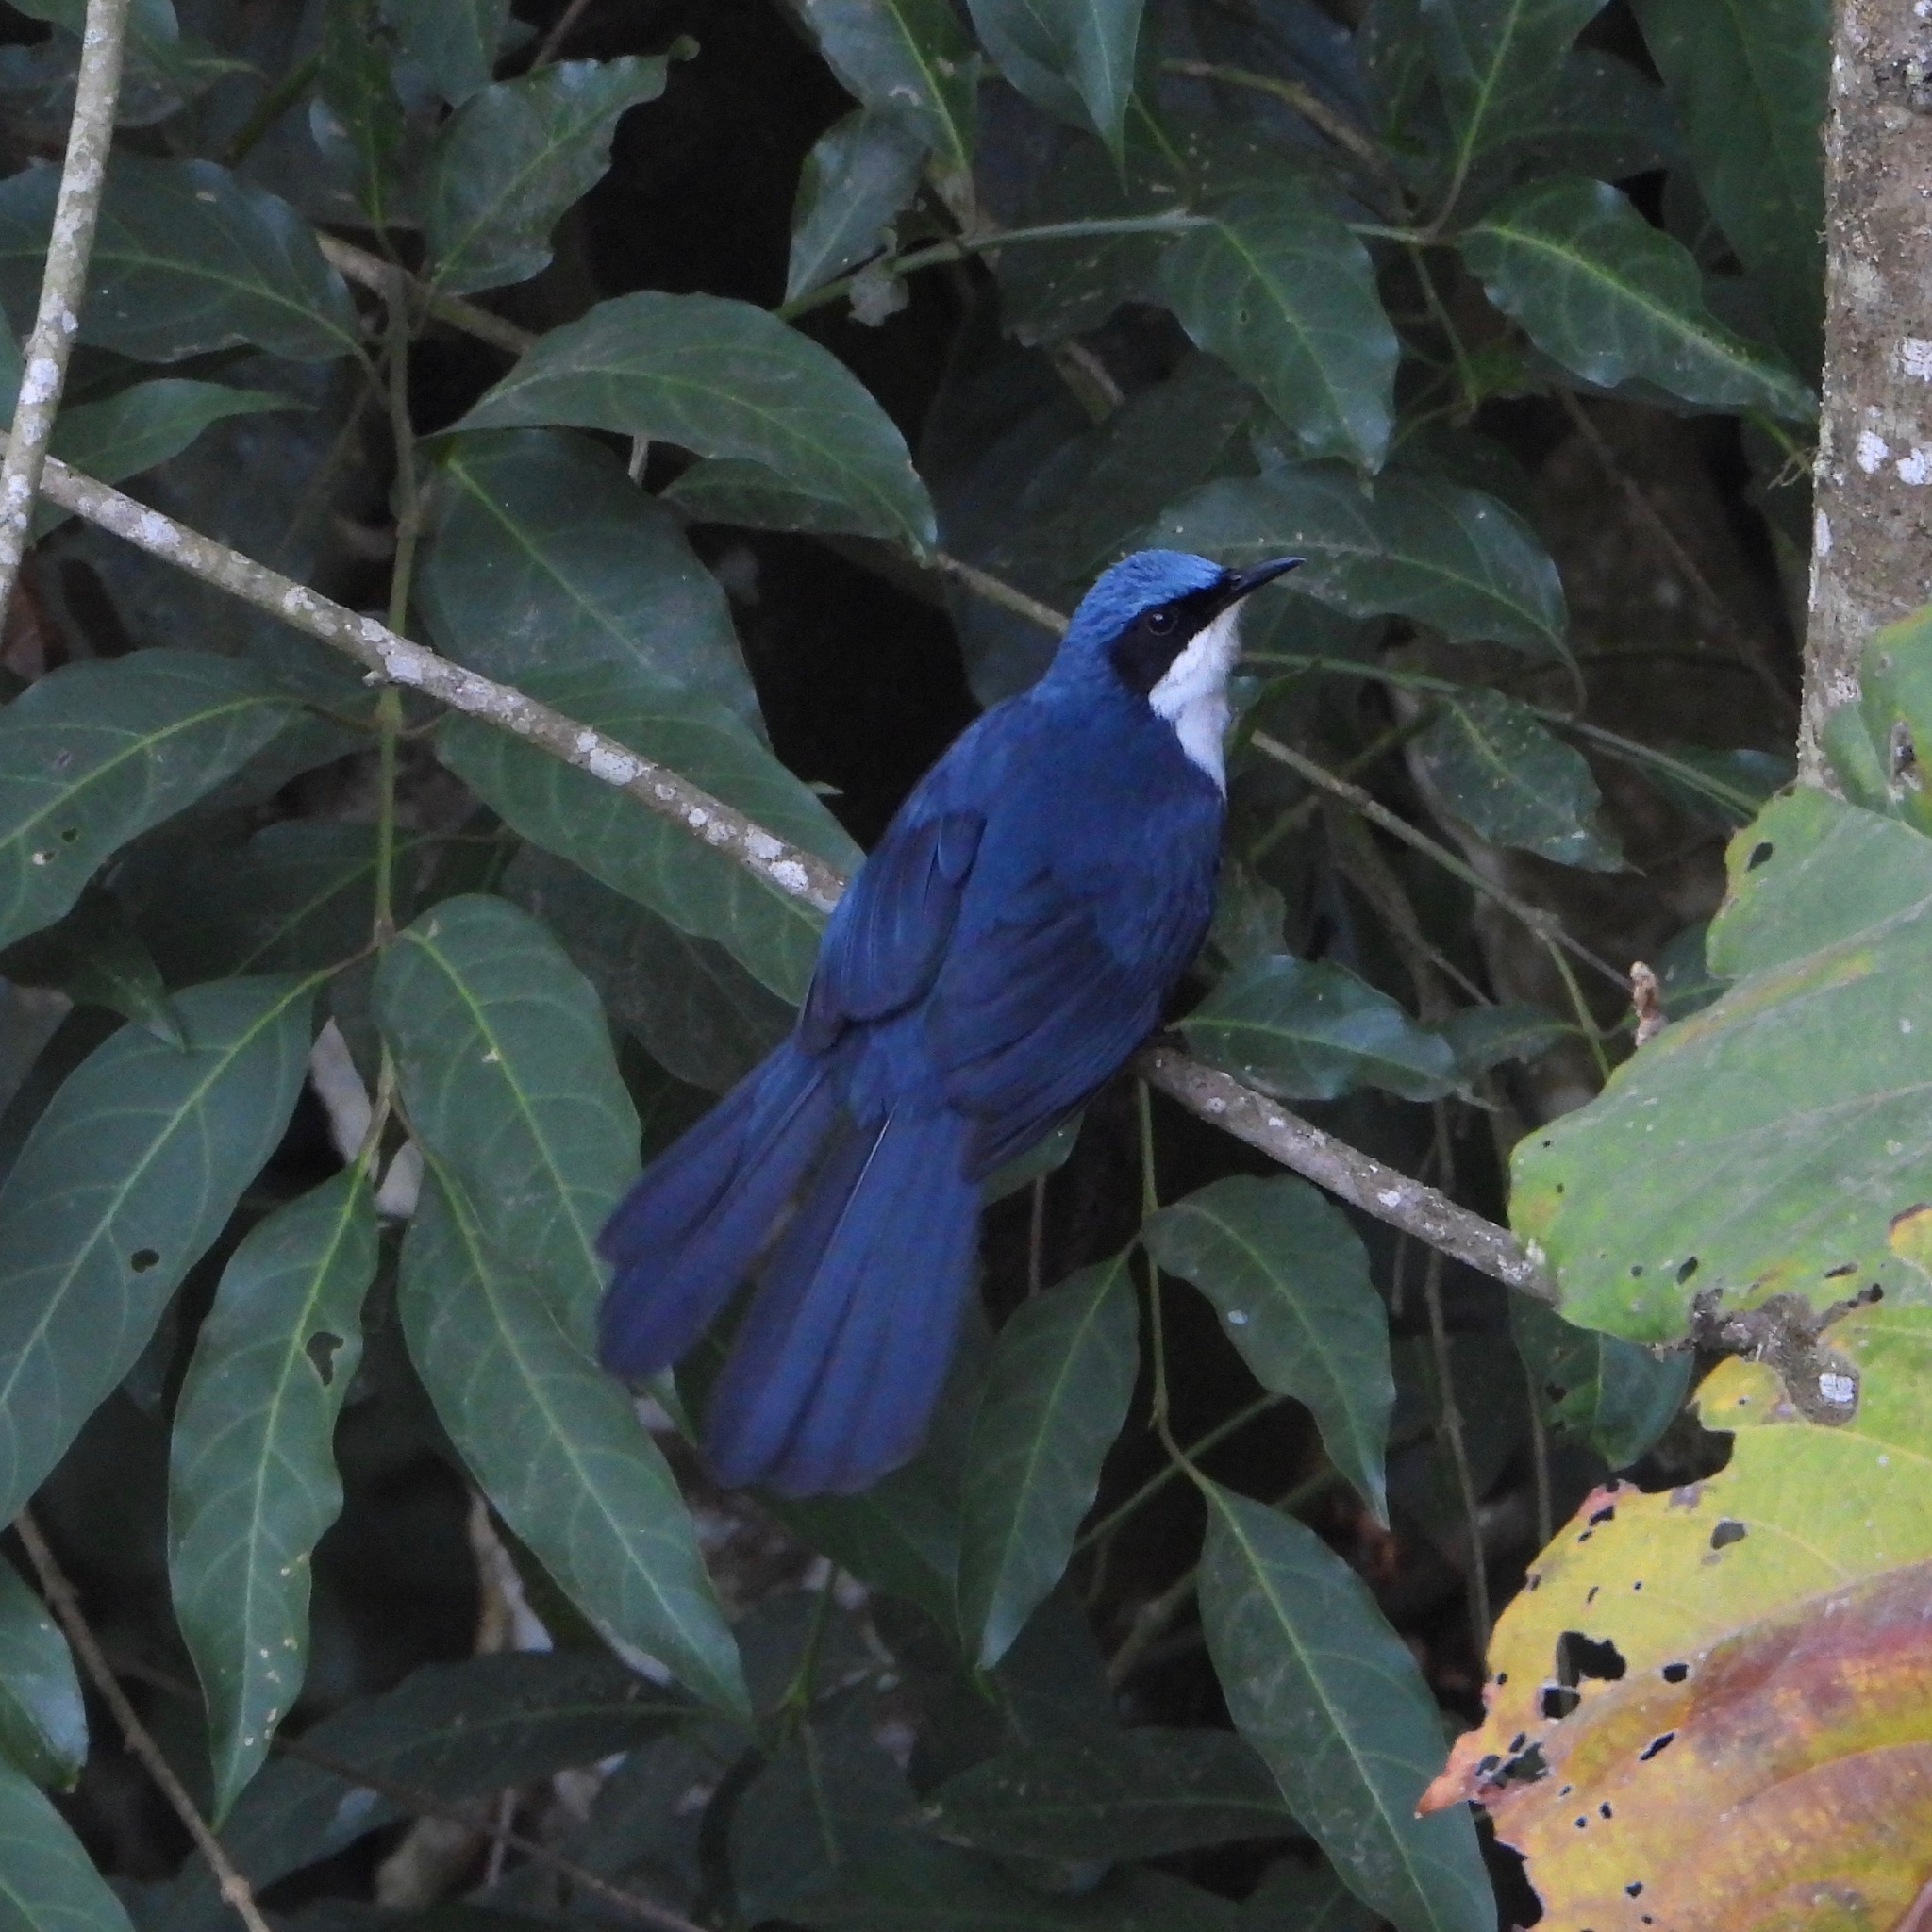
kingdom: Animalia
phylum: Chordata
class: Aves
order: Passeriformes
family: Mimidae
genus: Melanotis
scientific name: Melanotis hypoleucus
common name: Blue-and-white mockingbird
